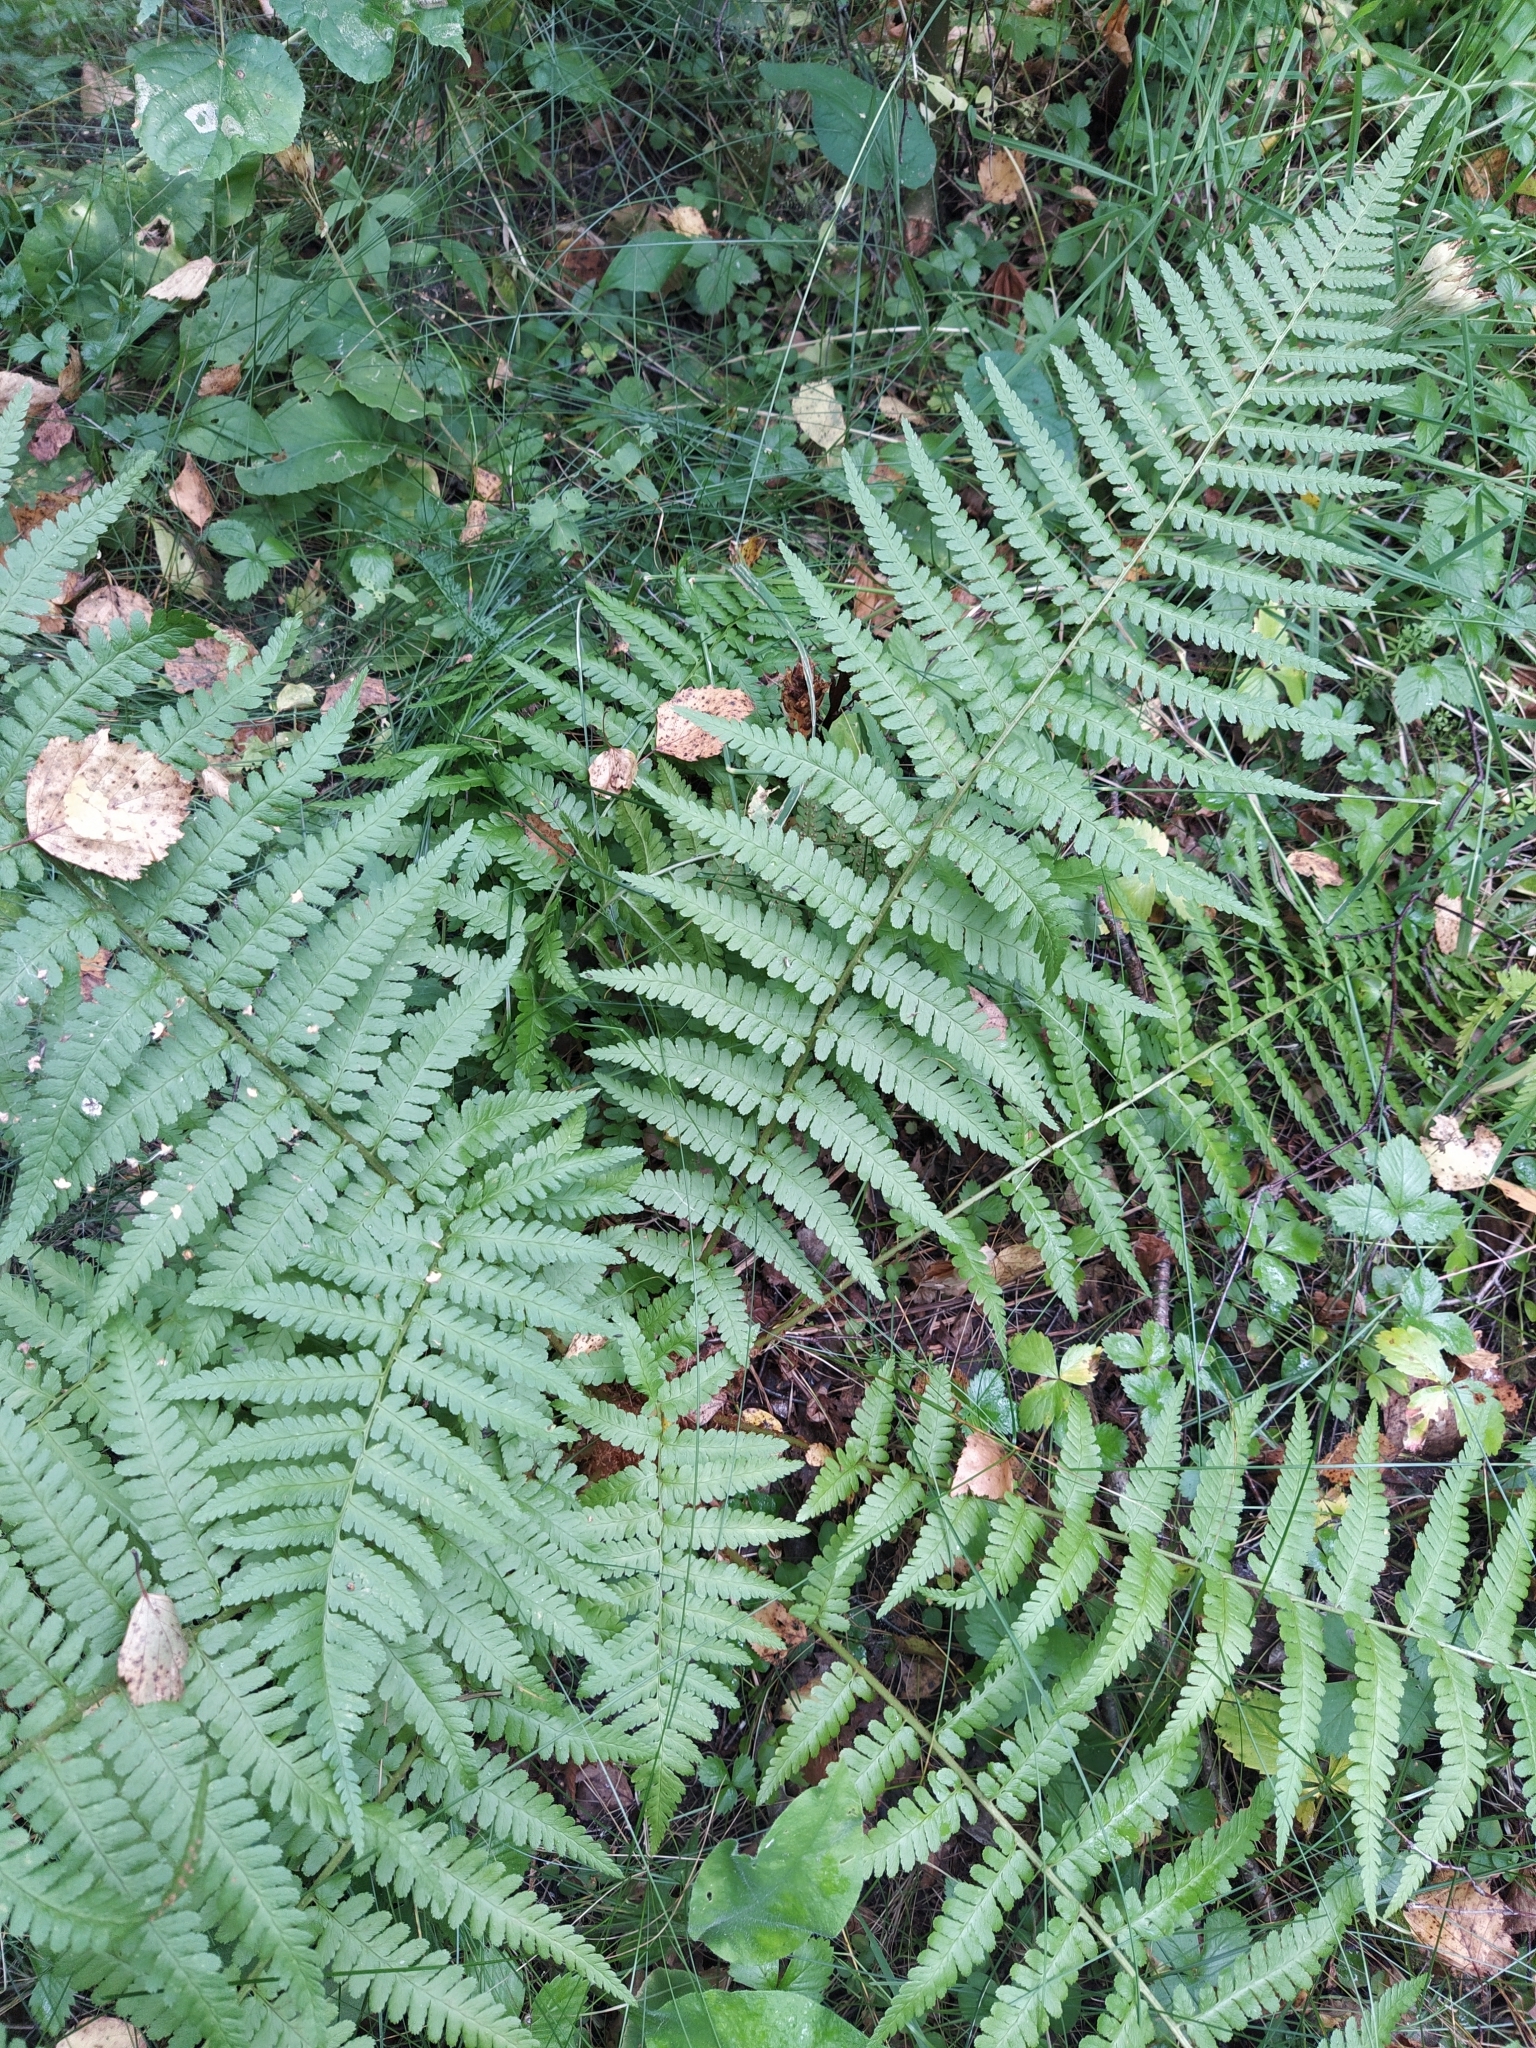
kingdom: Plantae
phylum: Tracheophyta
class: Polypodiopsida
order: Polypodiales
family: Dryopteridaceae
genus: Dryopteris
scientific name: Dryopteris filix-mas
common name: Male fern
